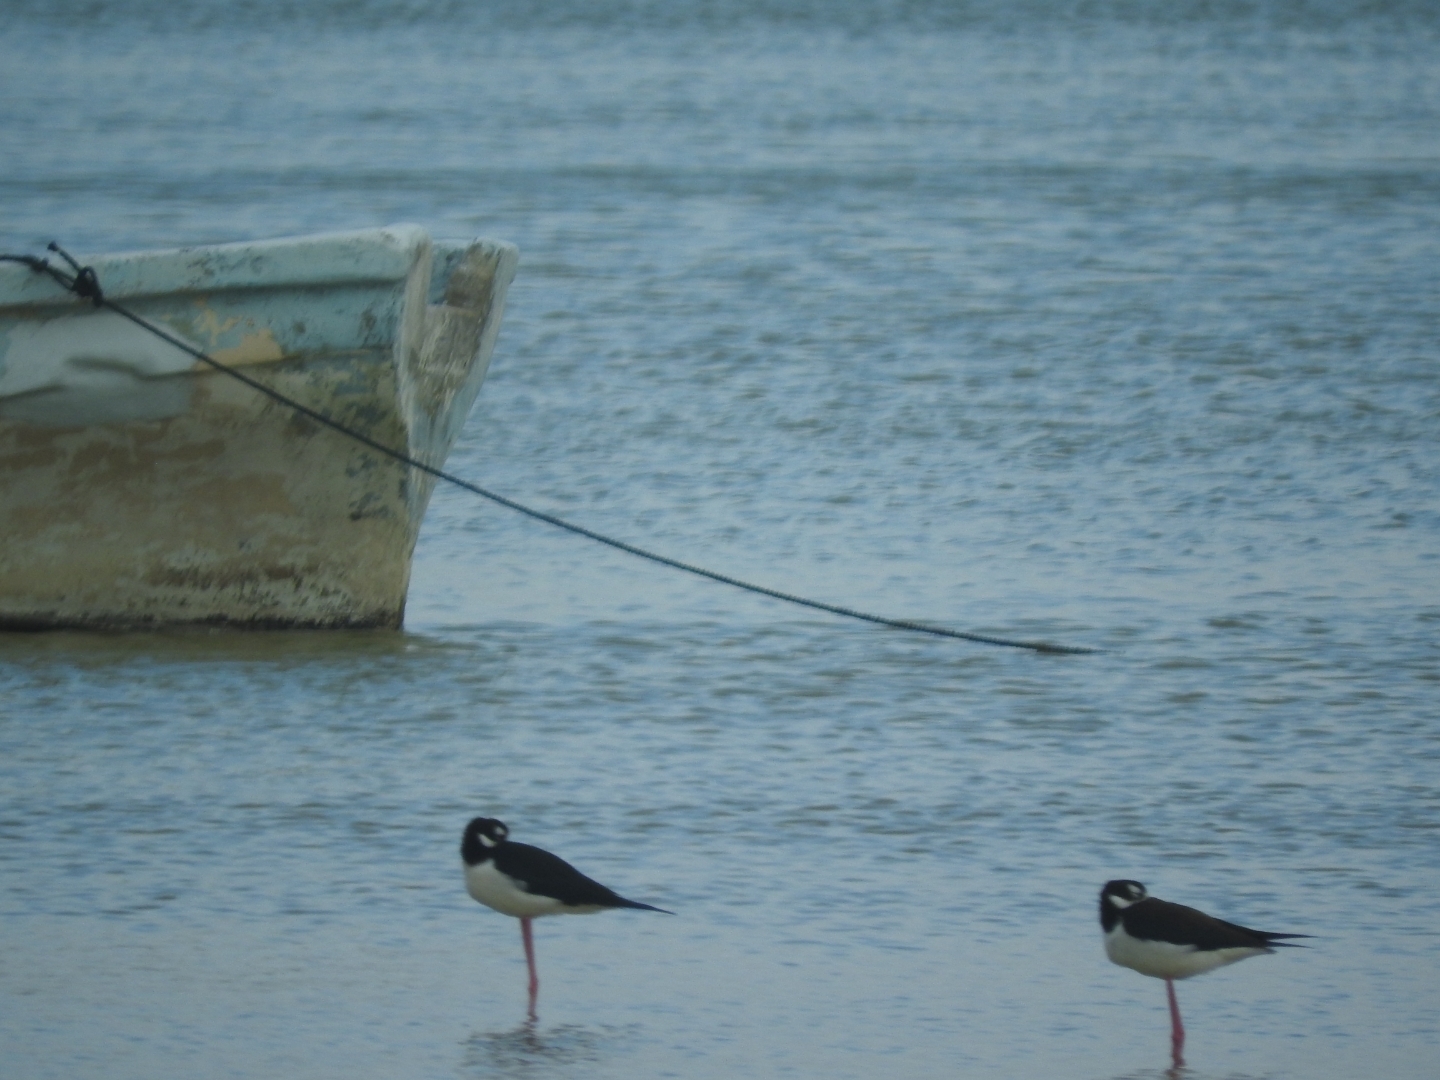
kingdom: Animalia
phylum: Chordata
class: Aves
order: Charadriiformes
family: Recurvirostridae
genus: Himantopus
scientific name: Himantopus mexicanus
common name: Black-necked stilt
